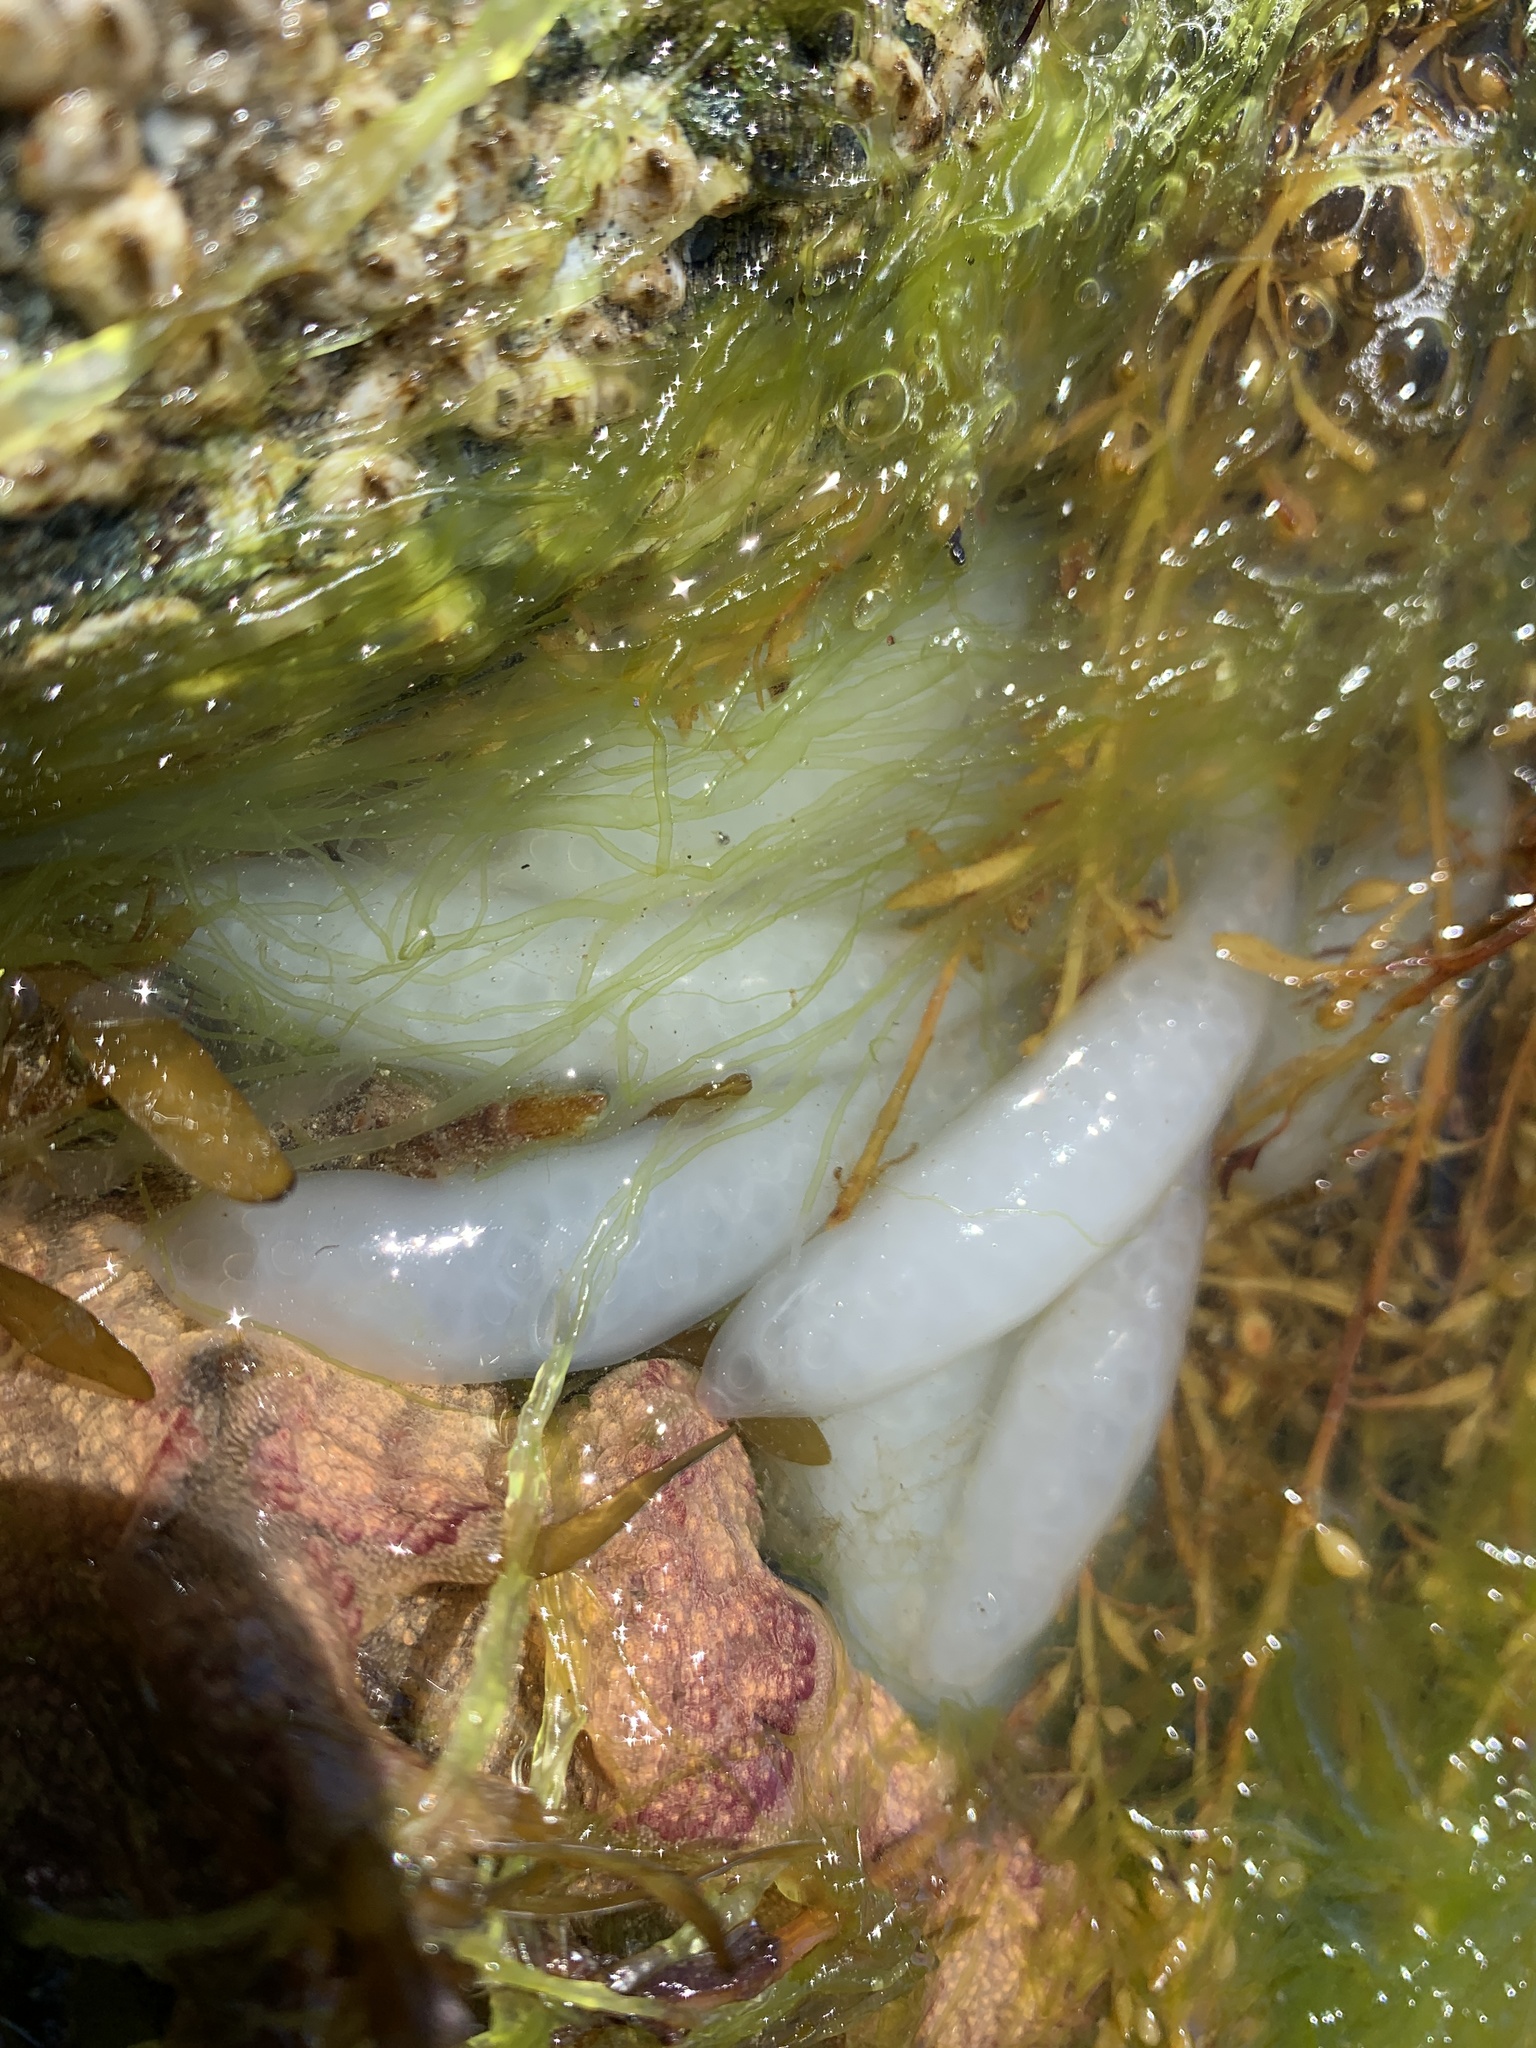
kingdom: Animalia
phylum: Mollusca
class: Cephalopoda
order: Myopsida
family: Loliginidae
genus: Doryteuthis
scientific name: Doryteuthis opalescens
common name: Opalescent inshore squid
